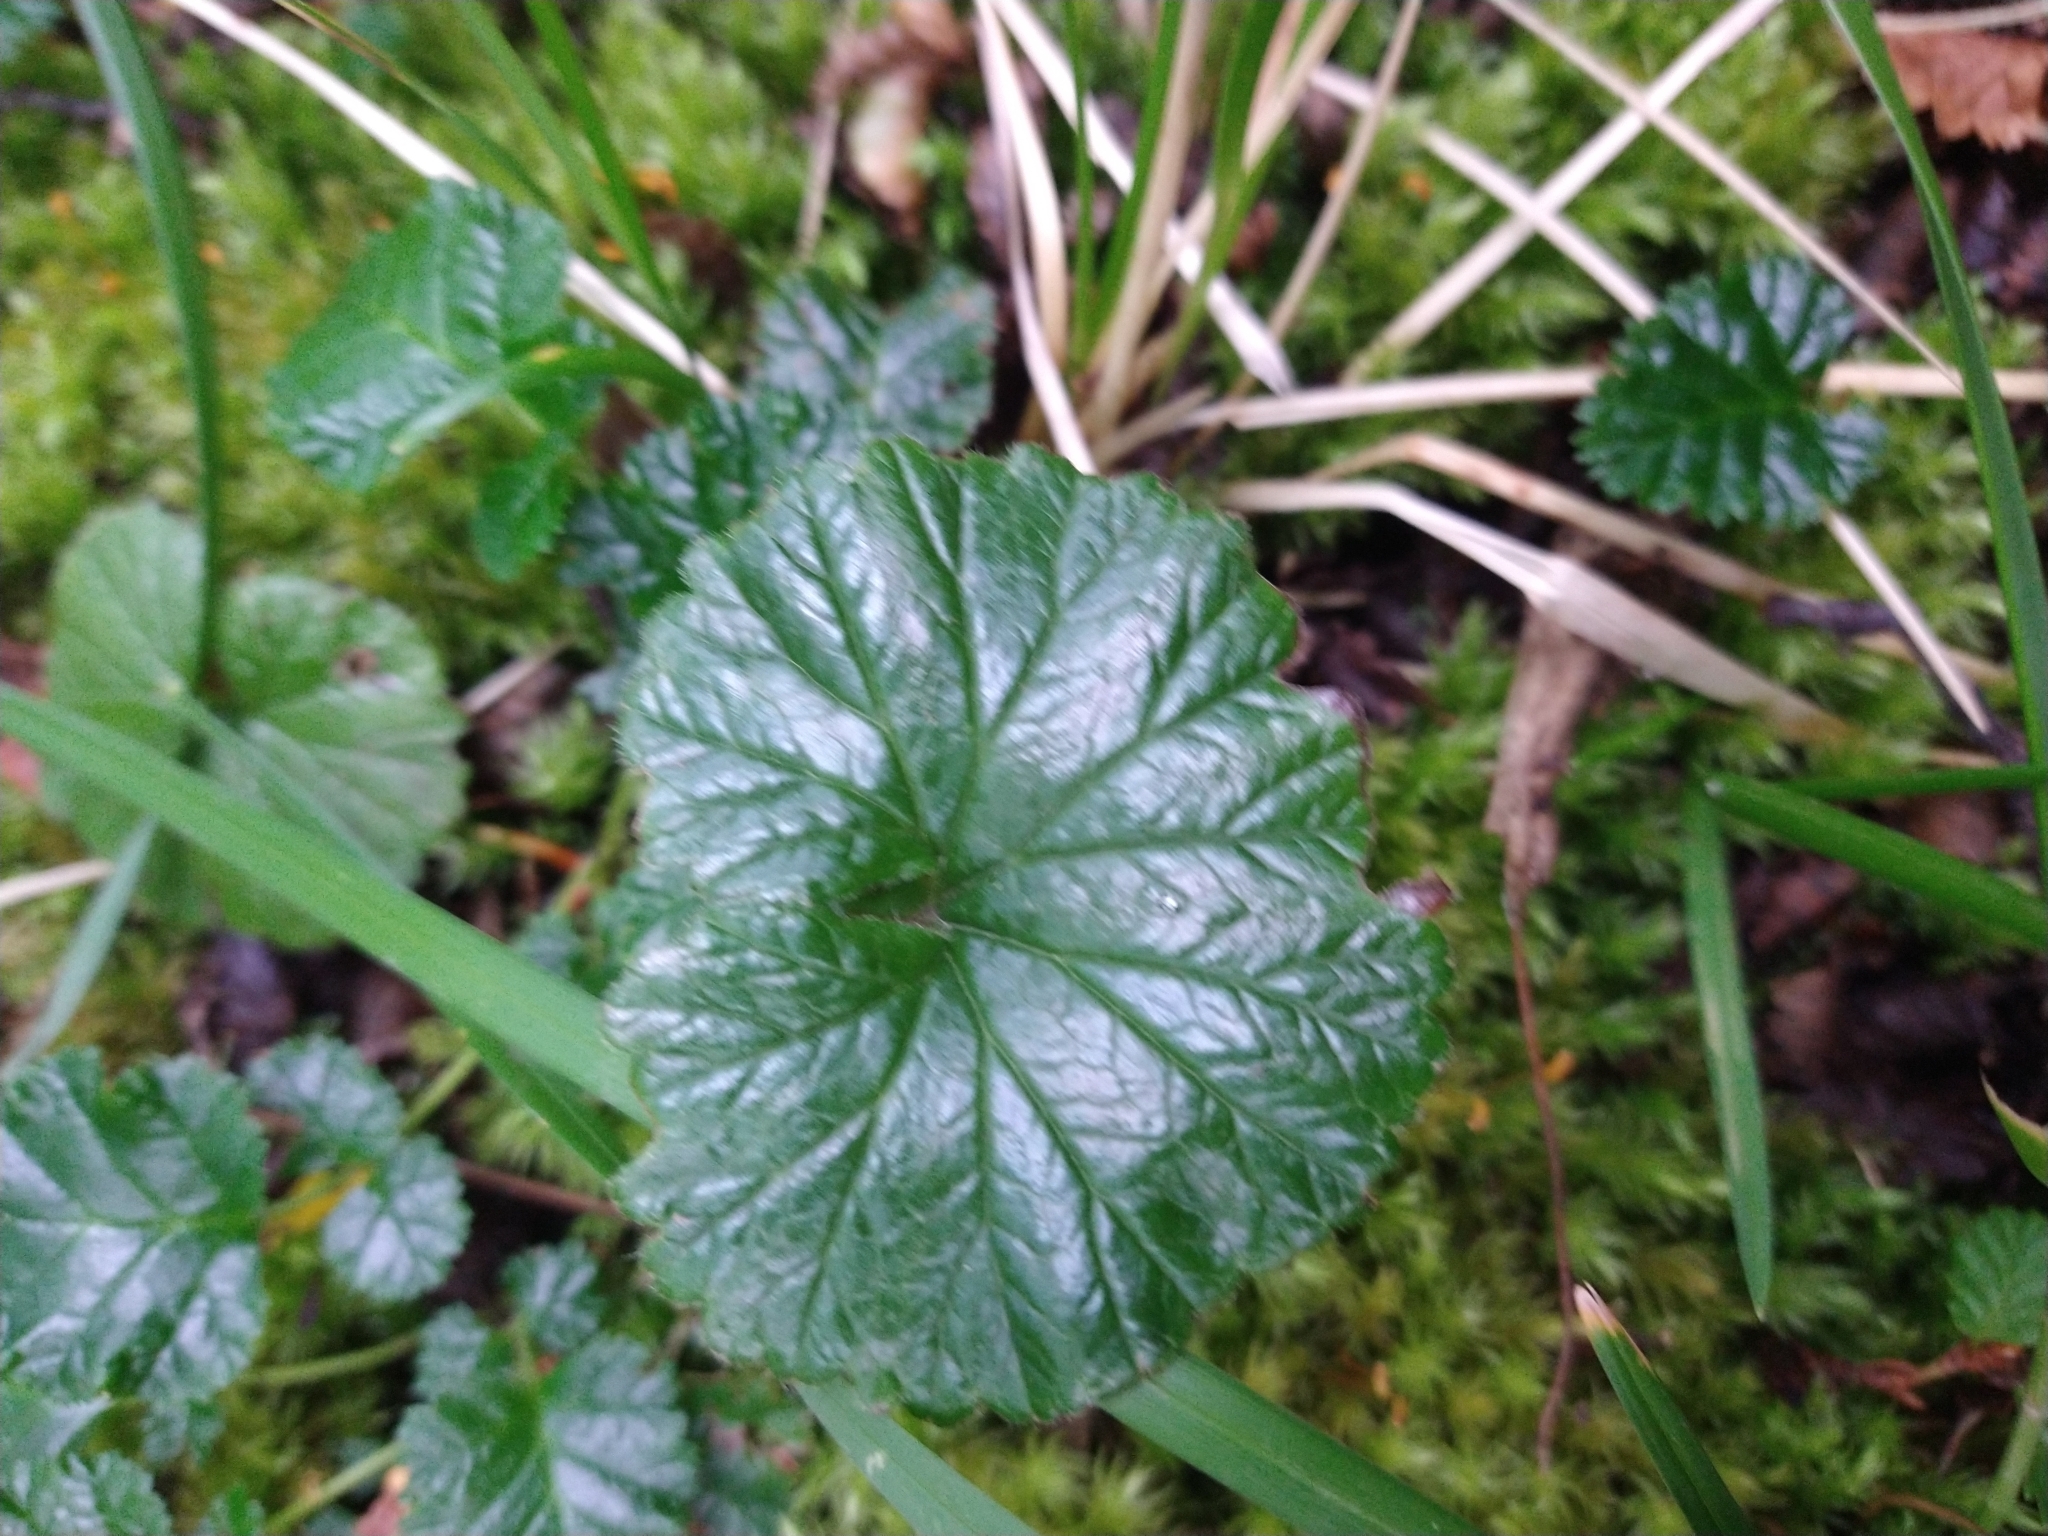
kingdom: Plantae
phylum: Tracheophyta
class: Magnoliopsida
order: Gunnerales
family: Gunneraceae
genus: Gunnera
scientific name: Gunnera magellanica
